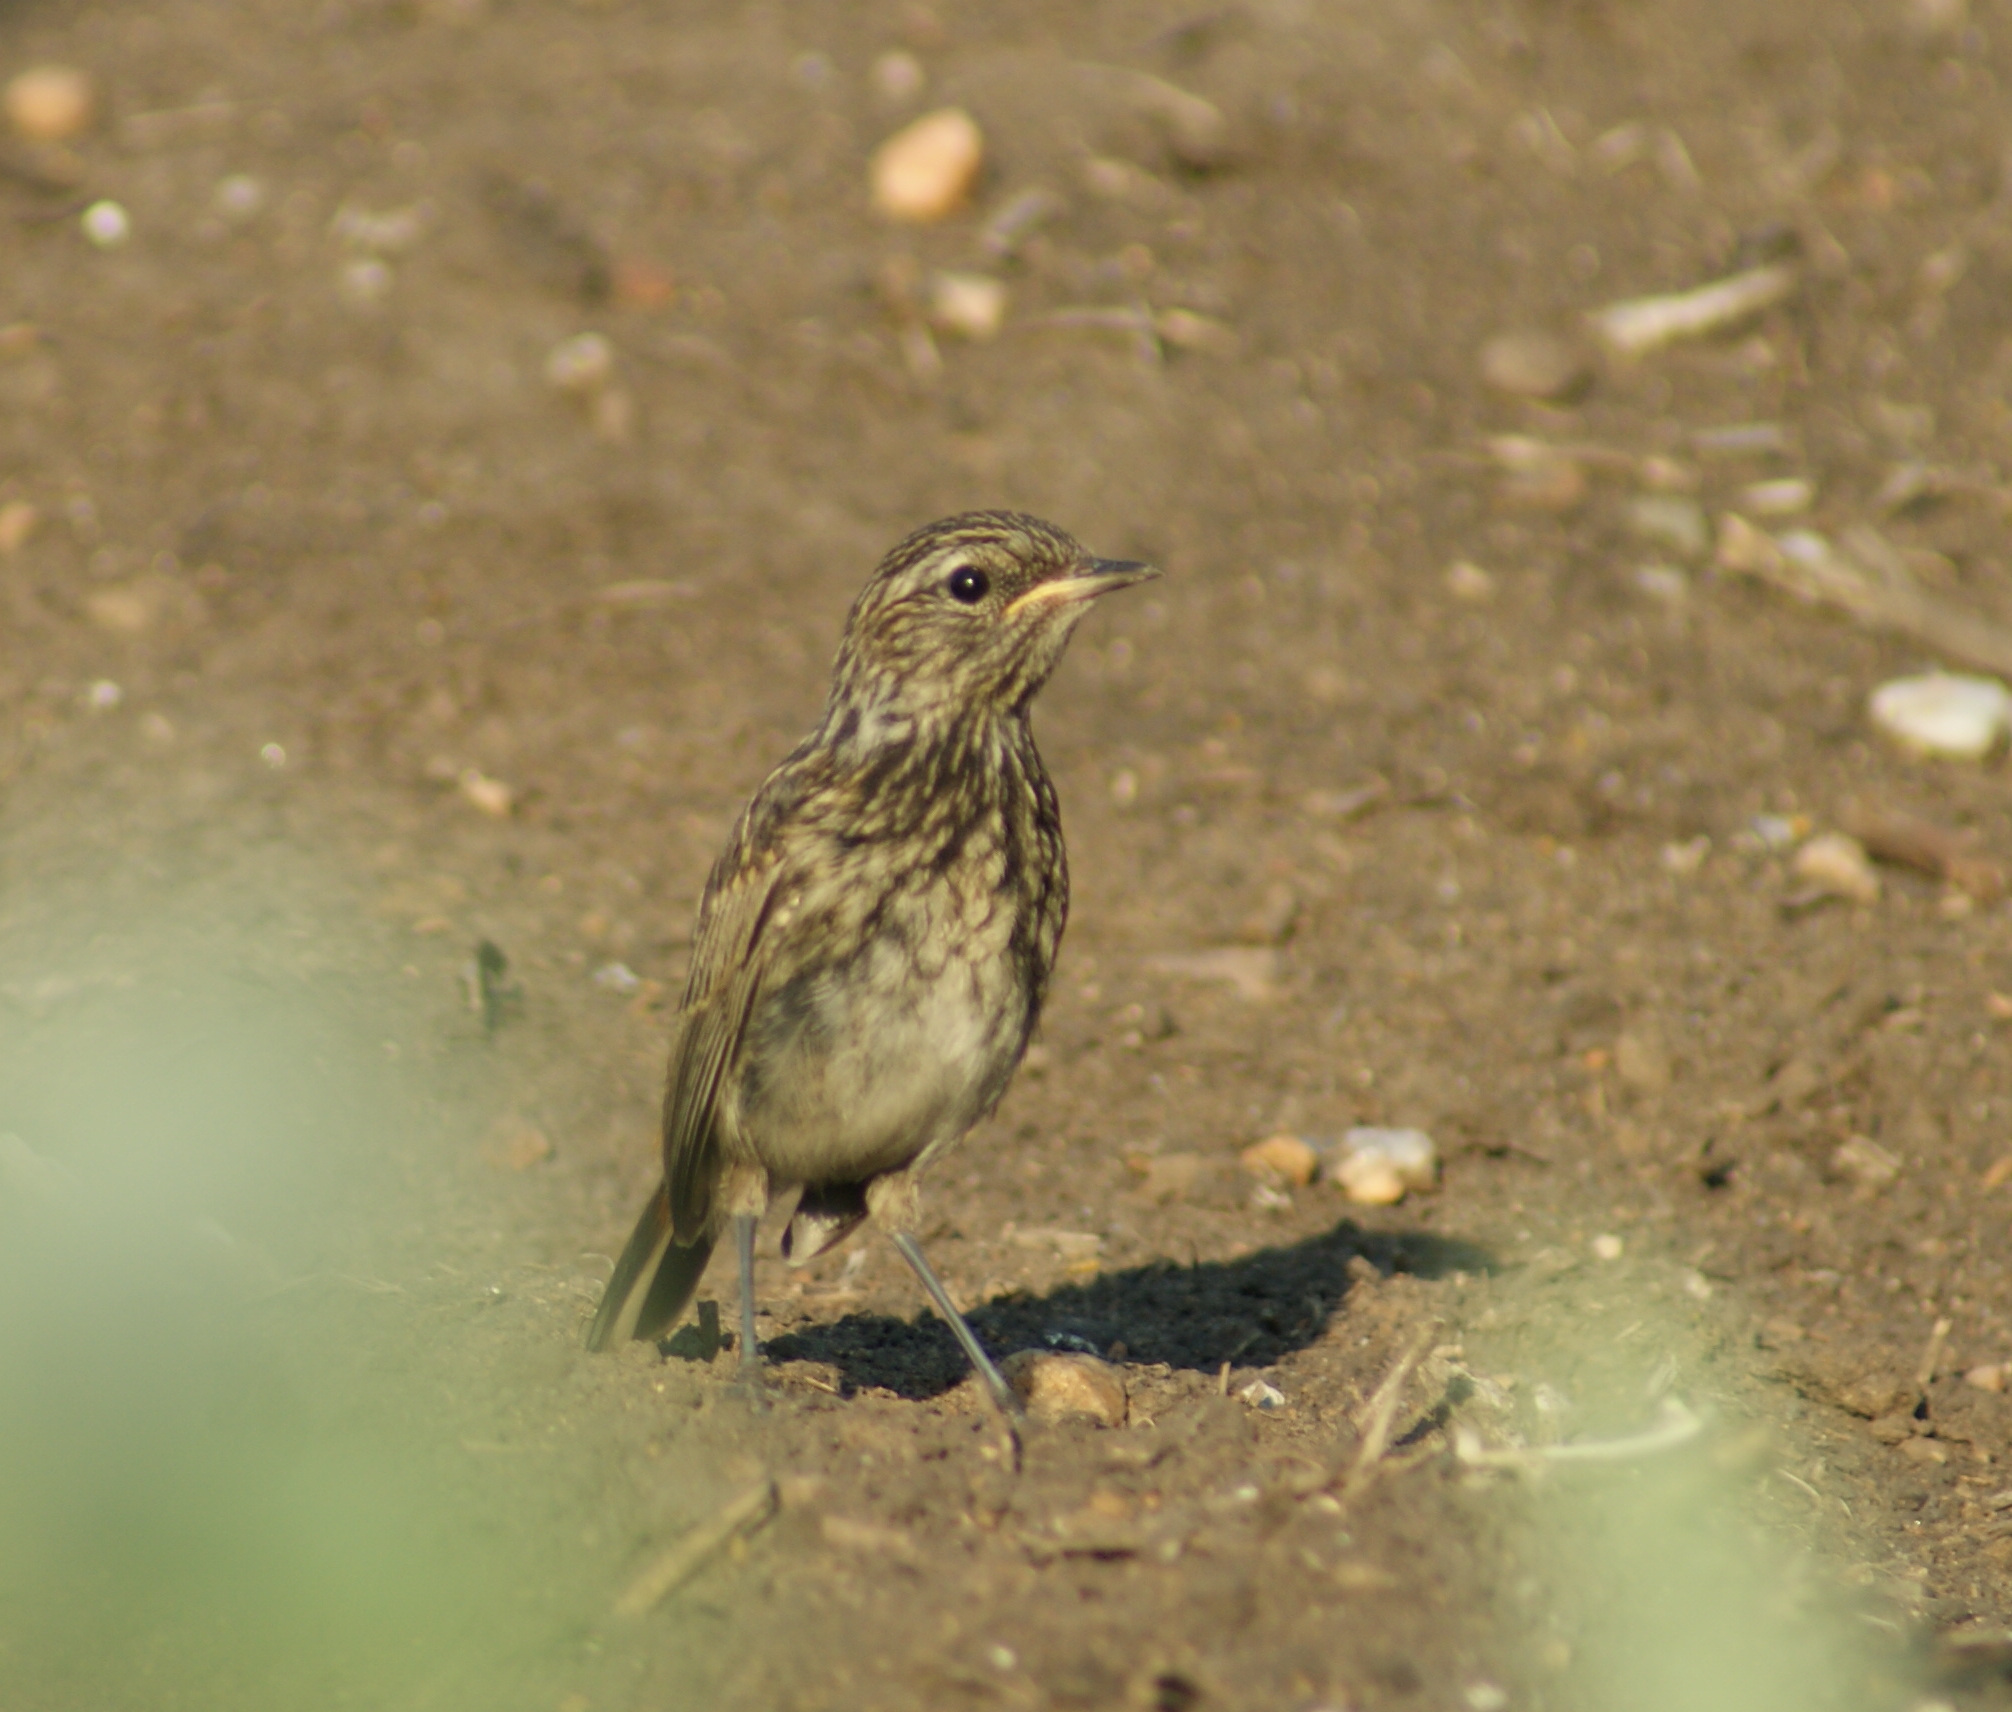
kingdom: Animalia
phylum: Chordata
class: Aves
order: Passeriformes
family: Muscicapidae
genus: Luscinia
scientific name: Luscinia svecica
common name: Bluethroat
